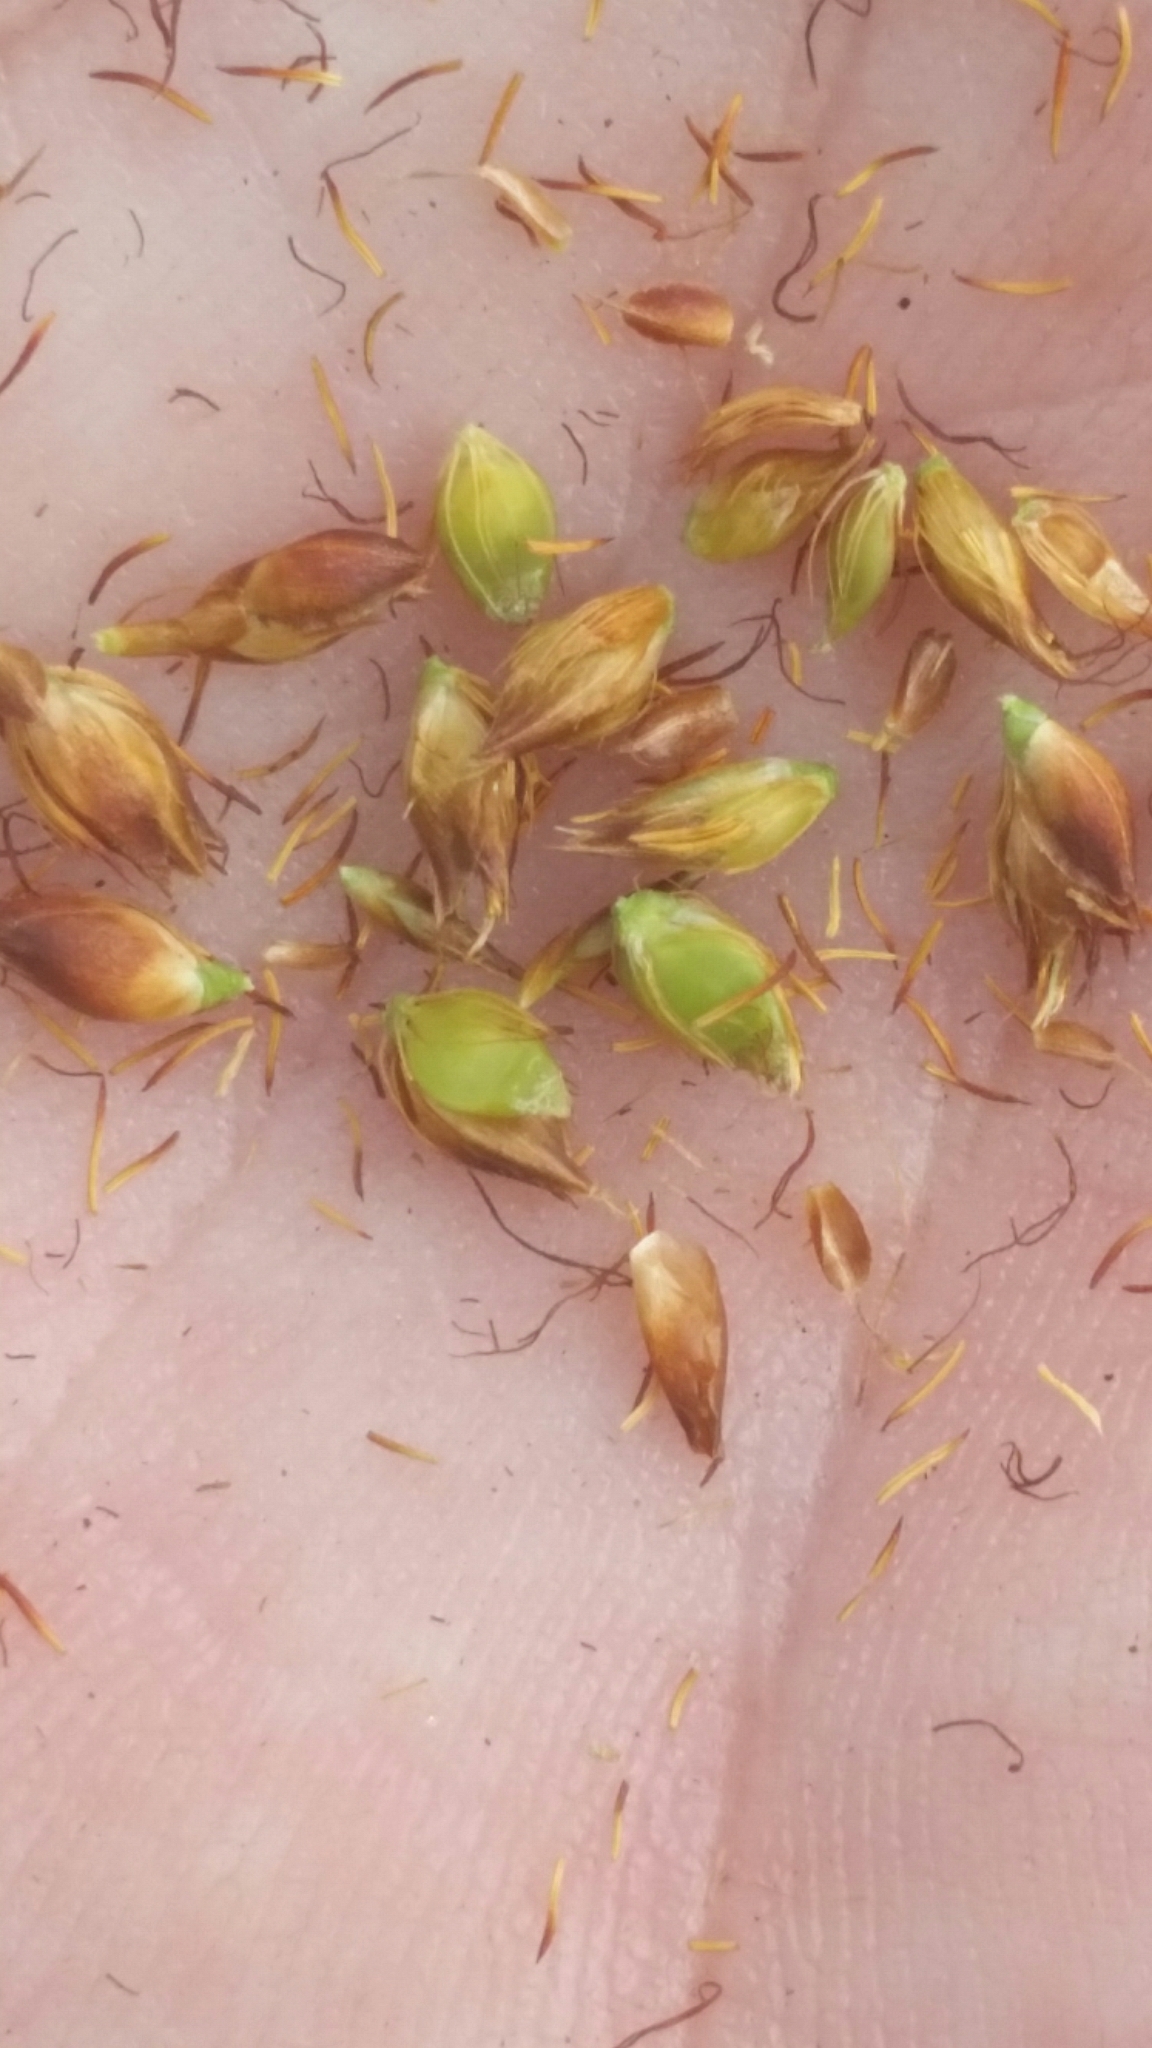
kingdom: Plantae
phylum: Tracheophyta
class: Liliopsida
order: Poales
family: Cyperaceae
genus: Rhynchospora
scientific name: Rhynchospora baldwinii
